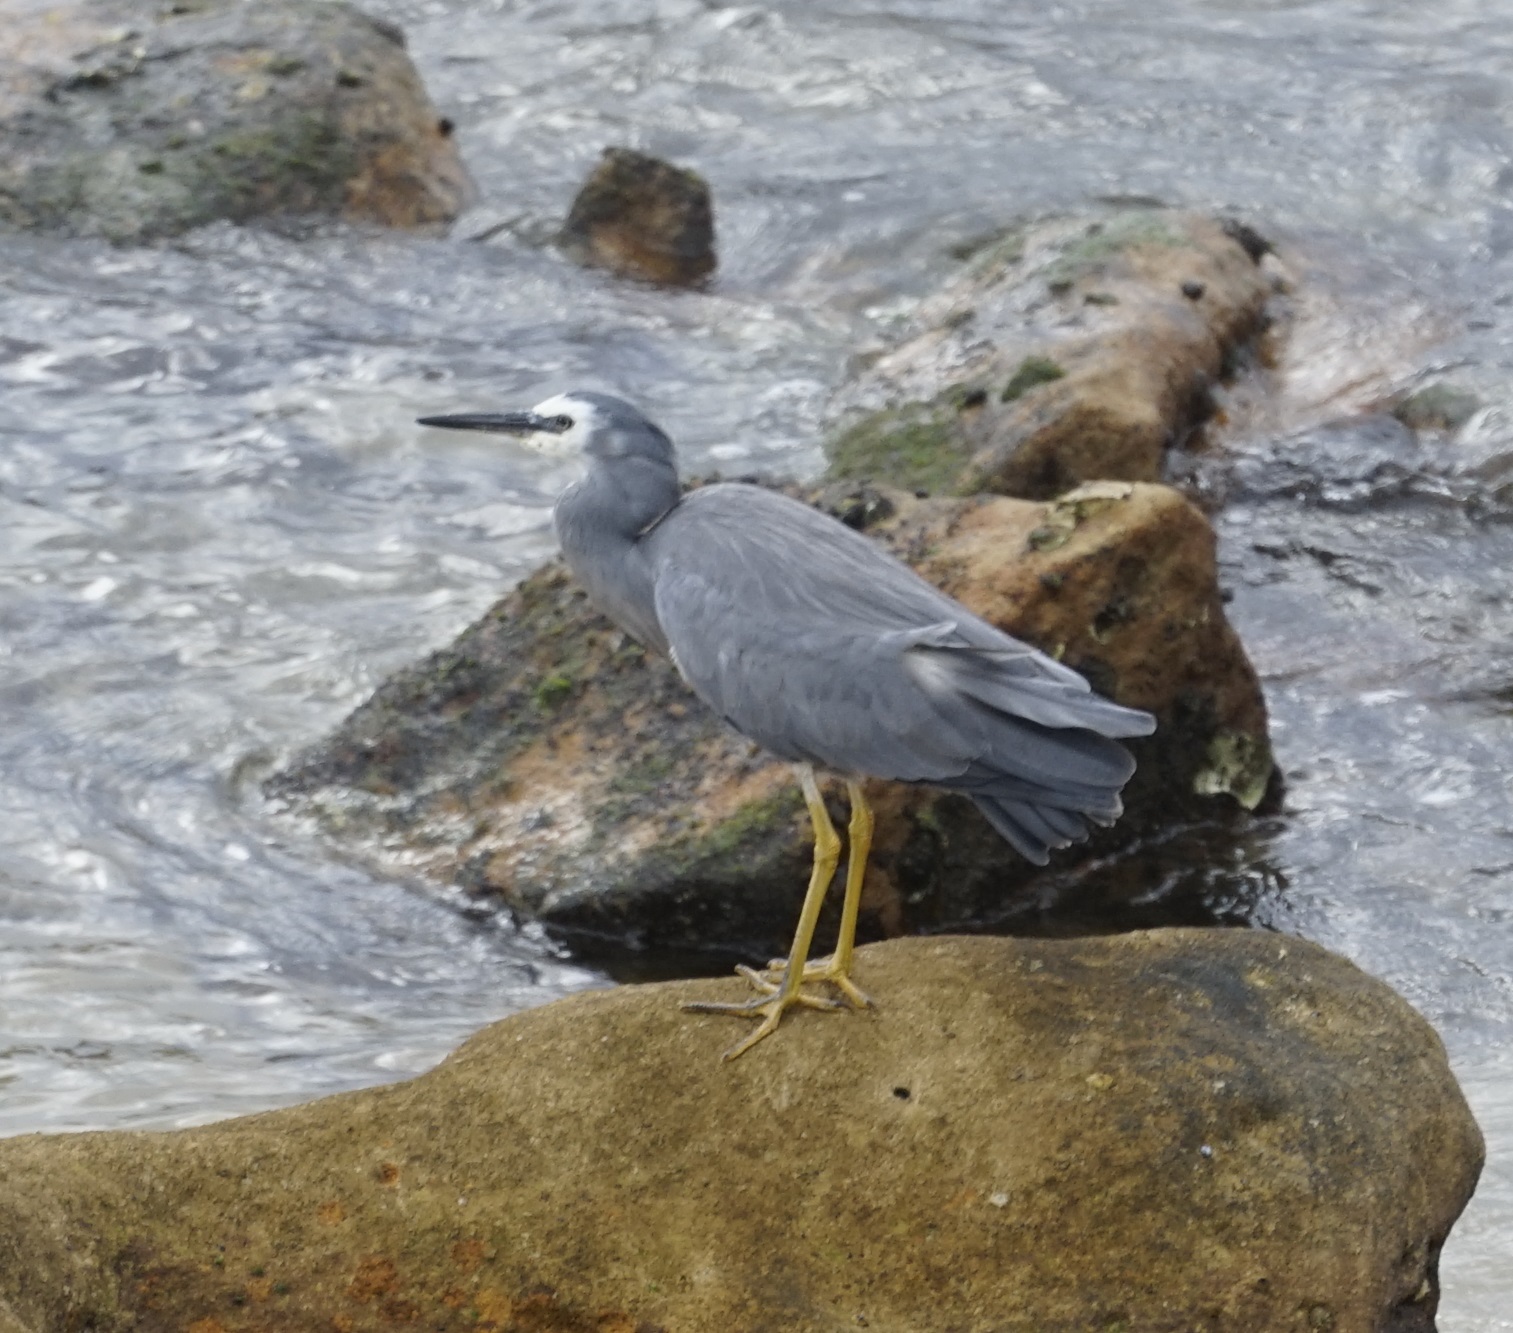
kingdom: Animalia
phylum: Chordata
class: Aves
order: Pelecaniformes
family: Ardeidae
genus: Egretta
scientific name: Egretta novaehollandiae
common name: White-faced heron
